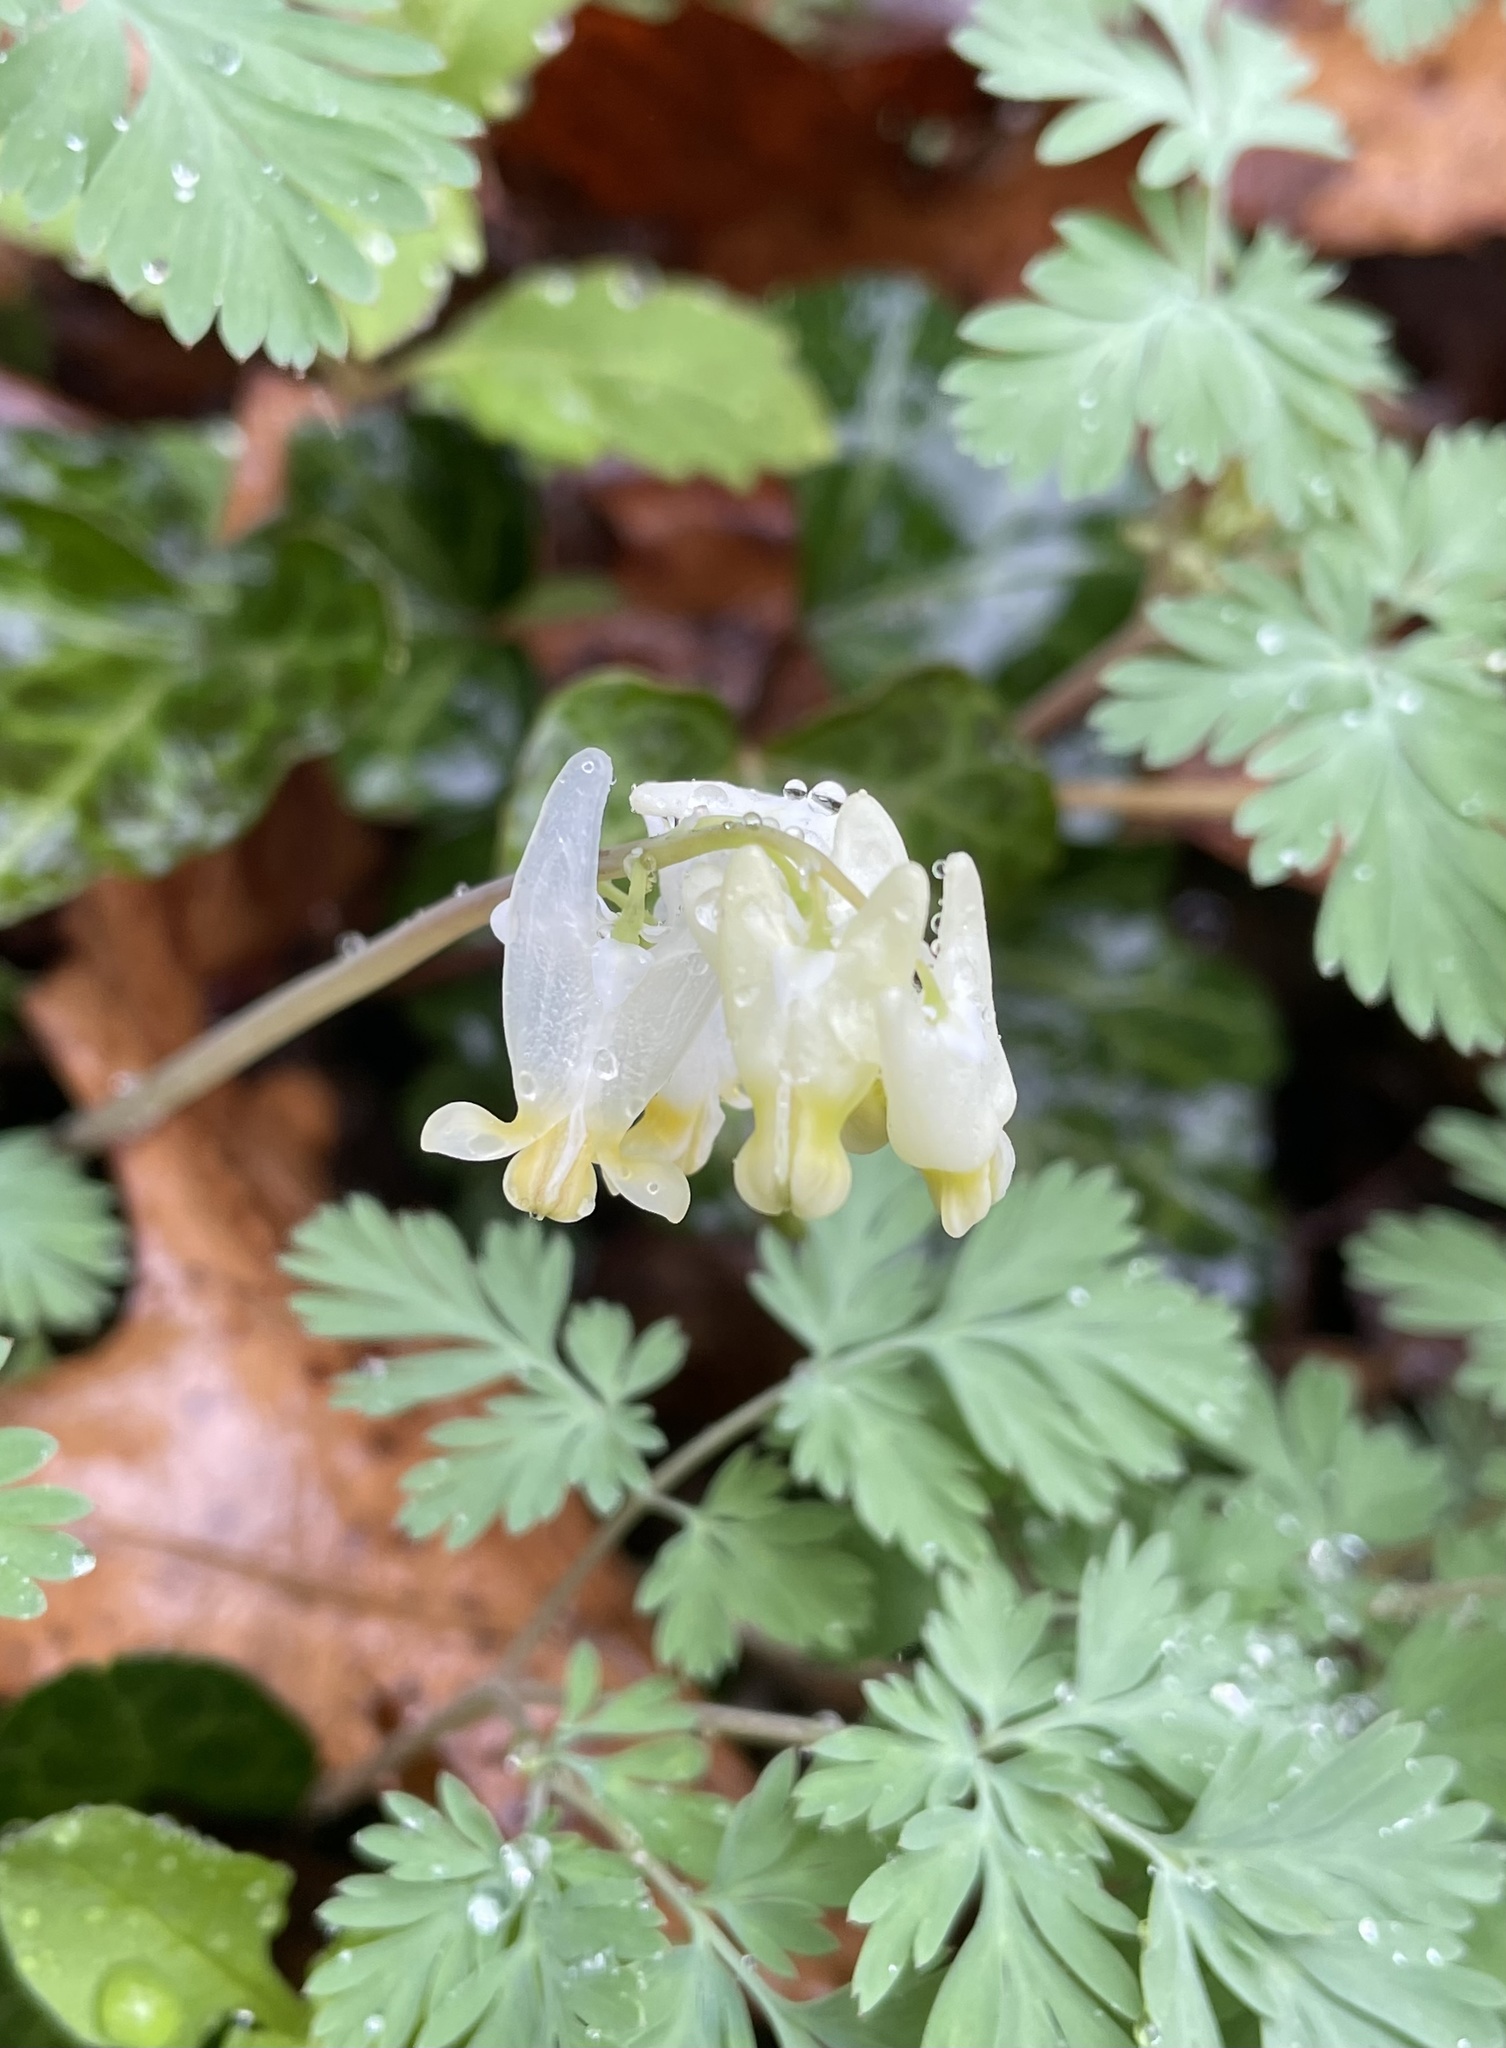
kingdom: Plantae
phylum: Tracheophyta
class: Magnoliopsida
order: Ranunculales
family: Papaveraceae
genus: Dicentra
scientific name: Dicentra cucullaria
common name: Dutchman's breeches
